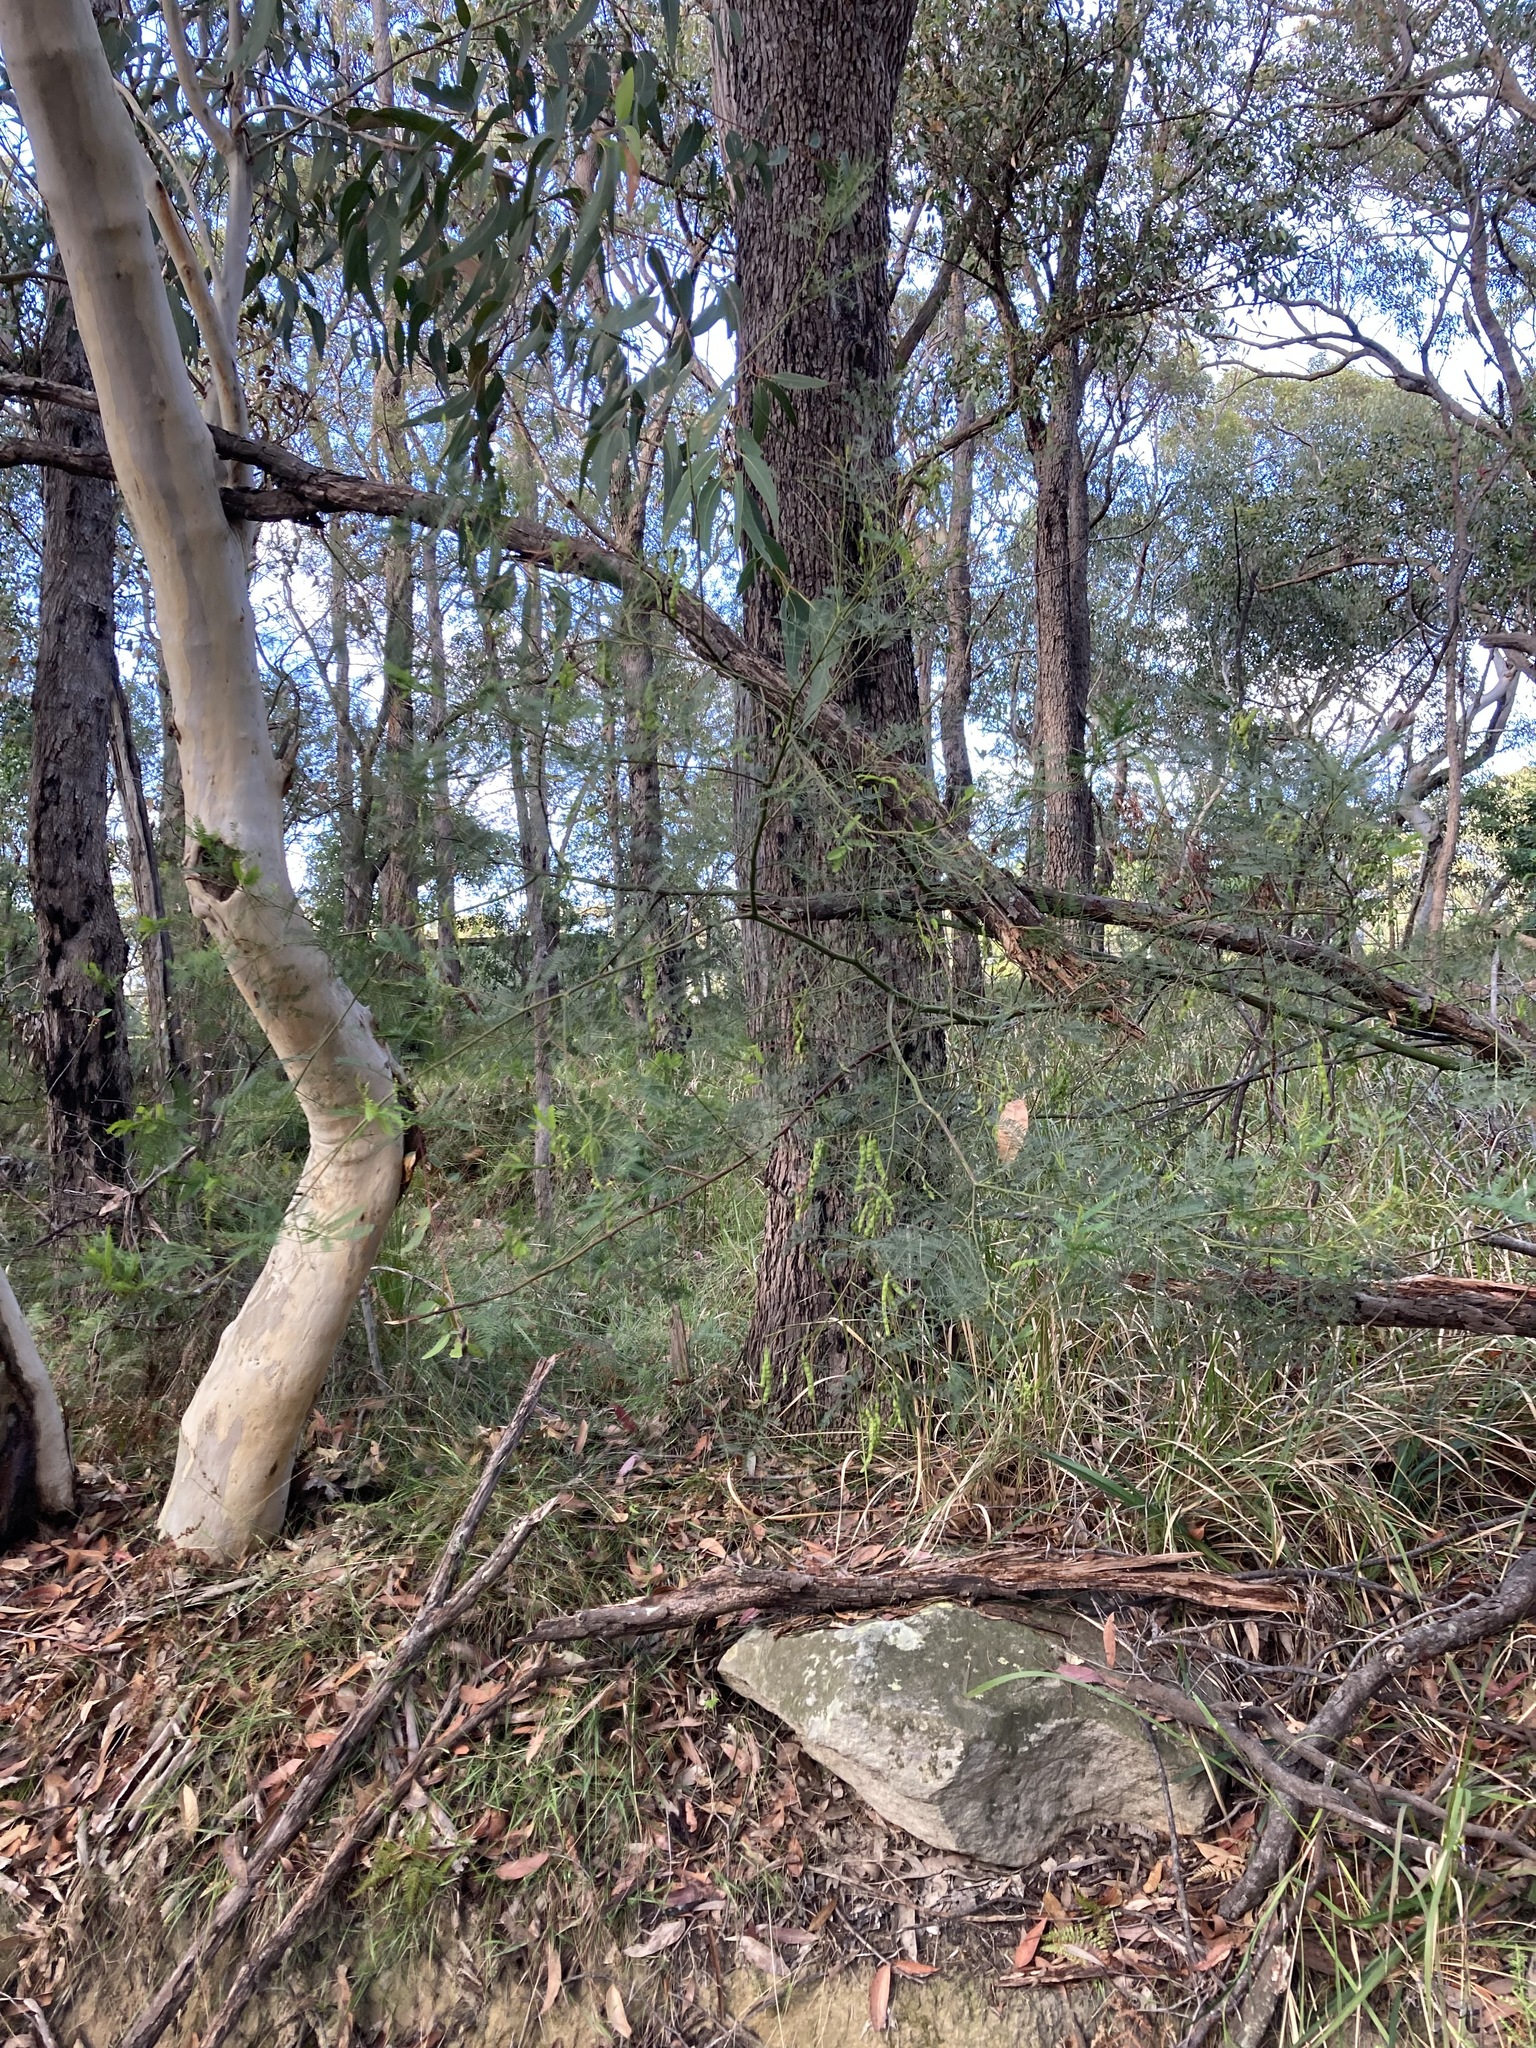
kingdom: Plantae
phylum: Tracheophyta
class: Magnoliopsida
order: Fabales
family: Fabaceae
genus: Acacia
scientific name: Acacia decurrens
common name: Green wattle
